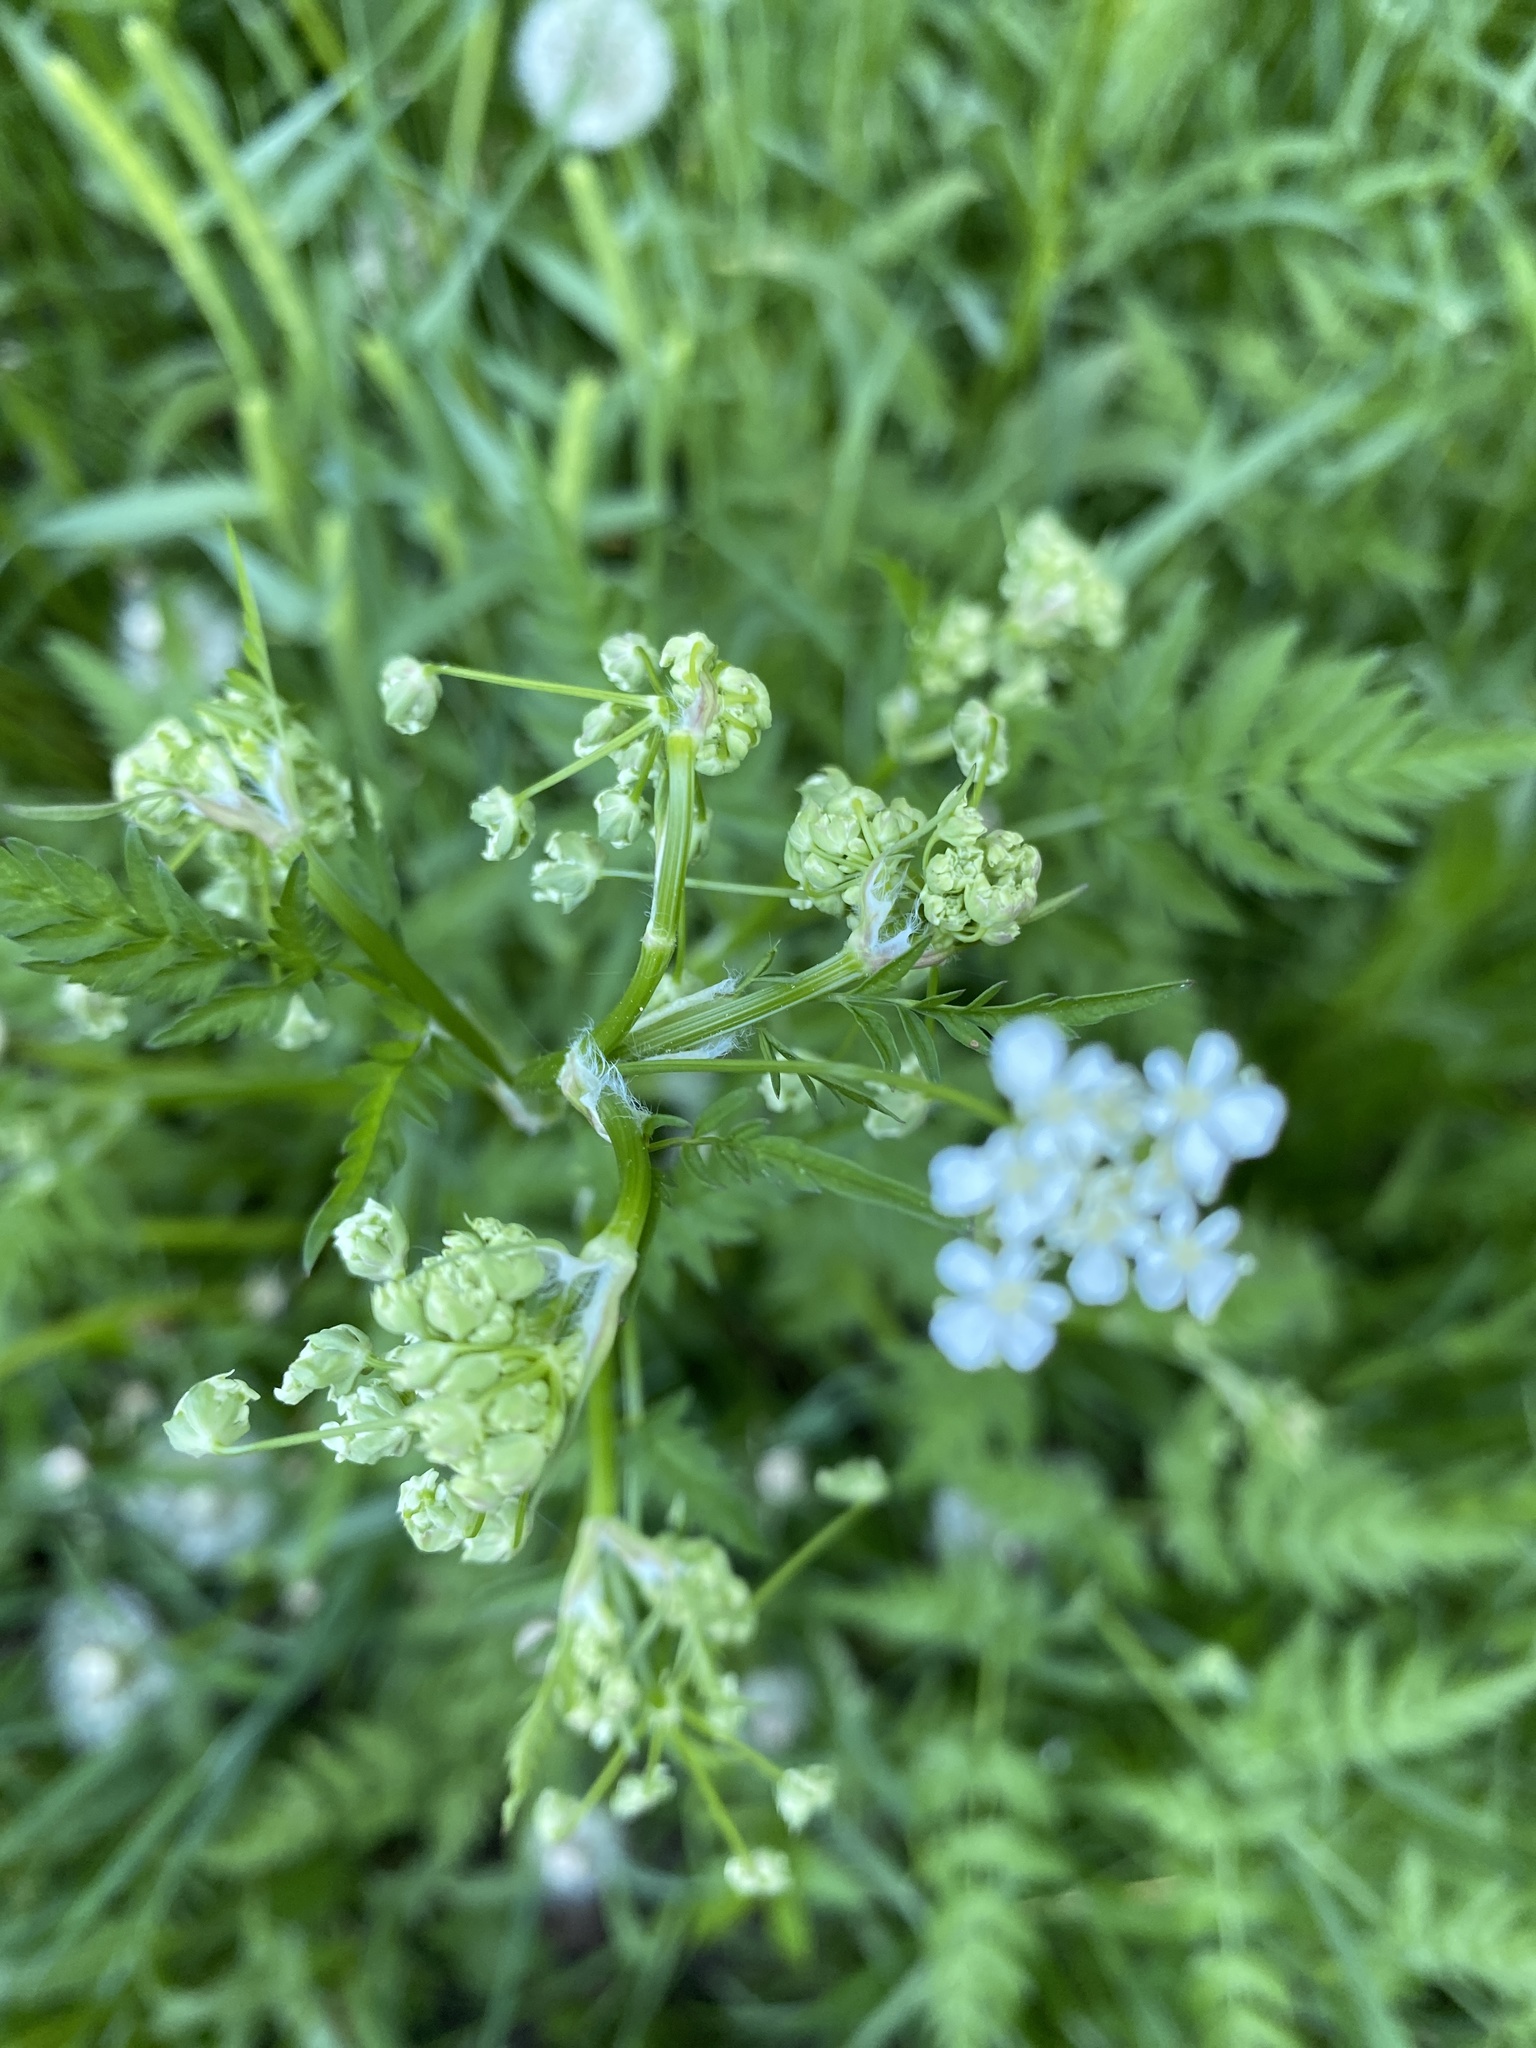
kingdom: Plantae
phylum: Tracheophyta
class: Magnoliopsida
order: Apiales
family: Apiaceae
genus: Anthriscus
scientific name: Anthriscus sylvestris
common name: Cow parsley
